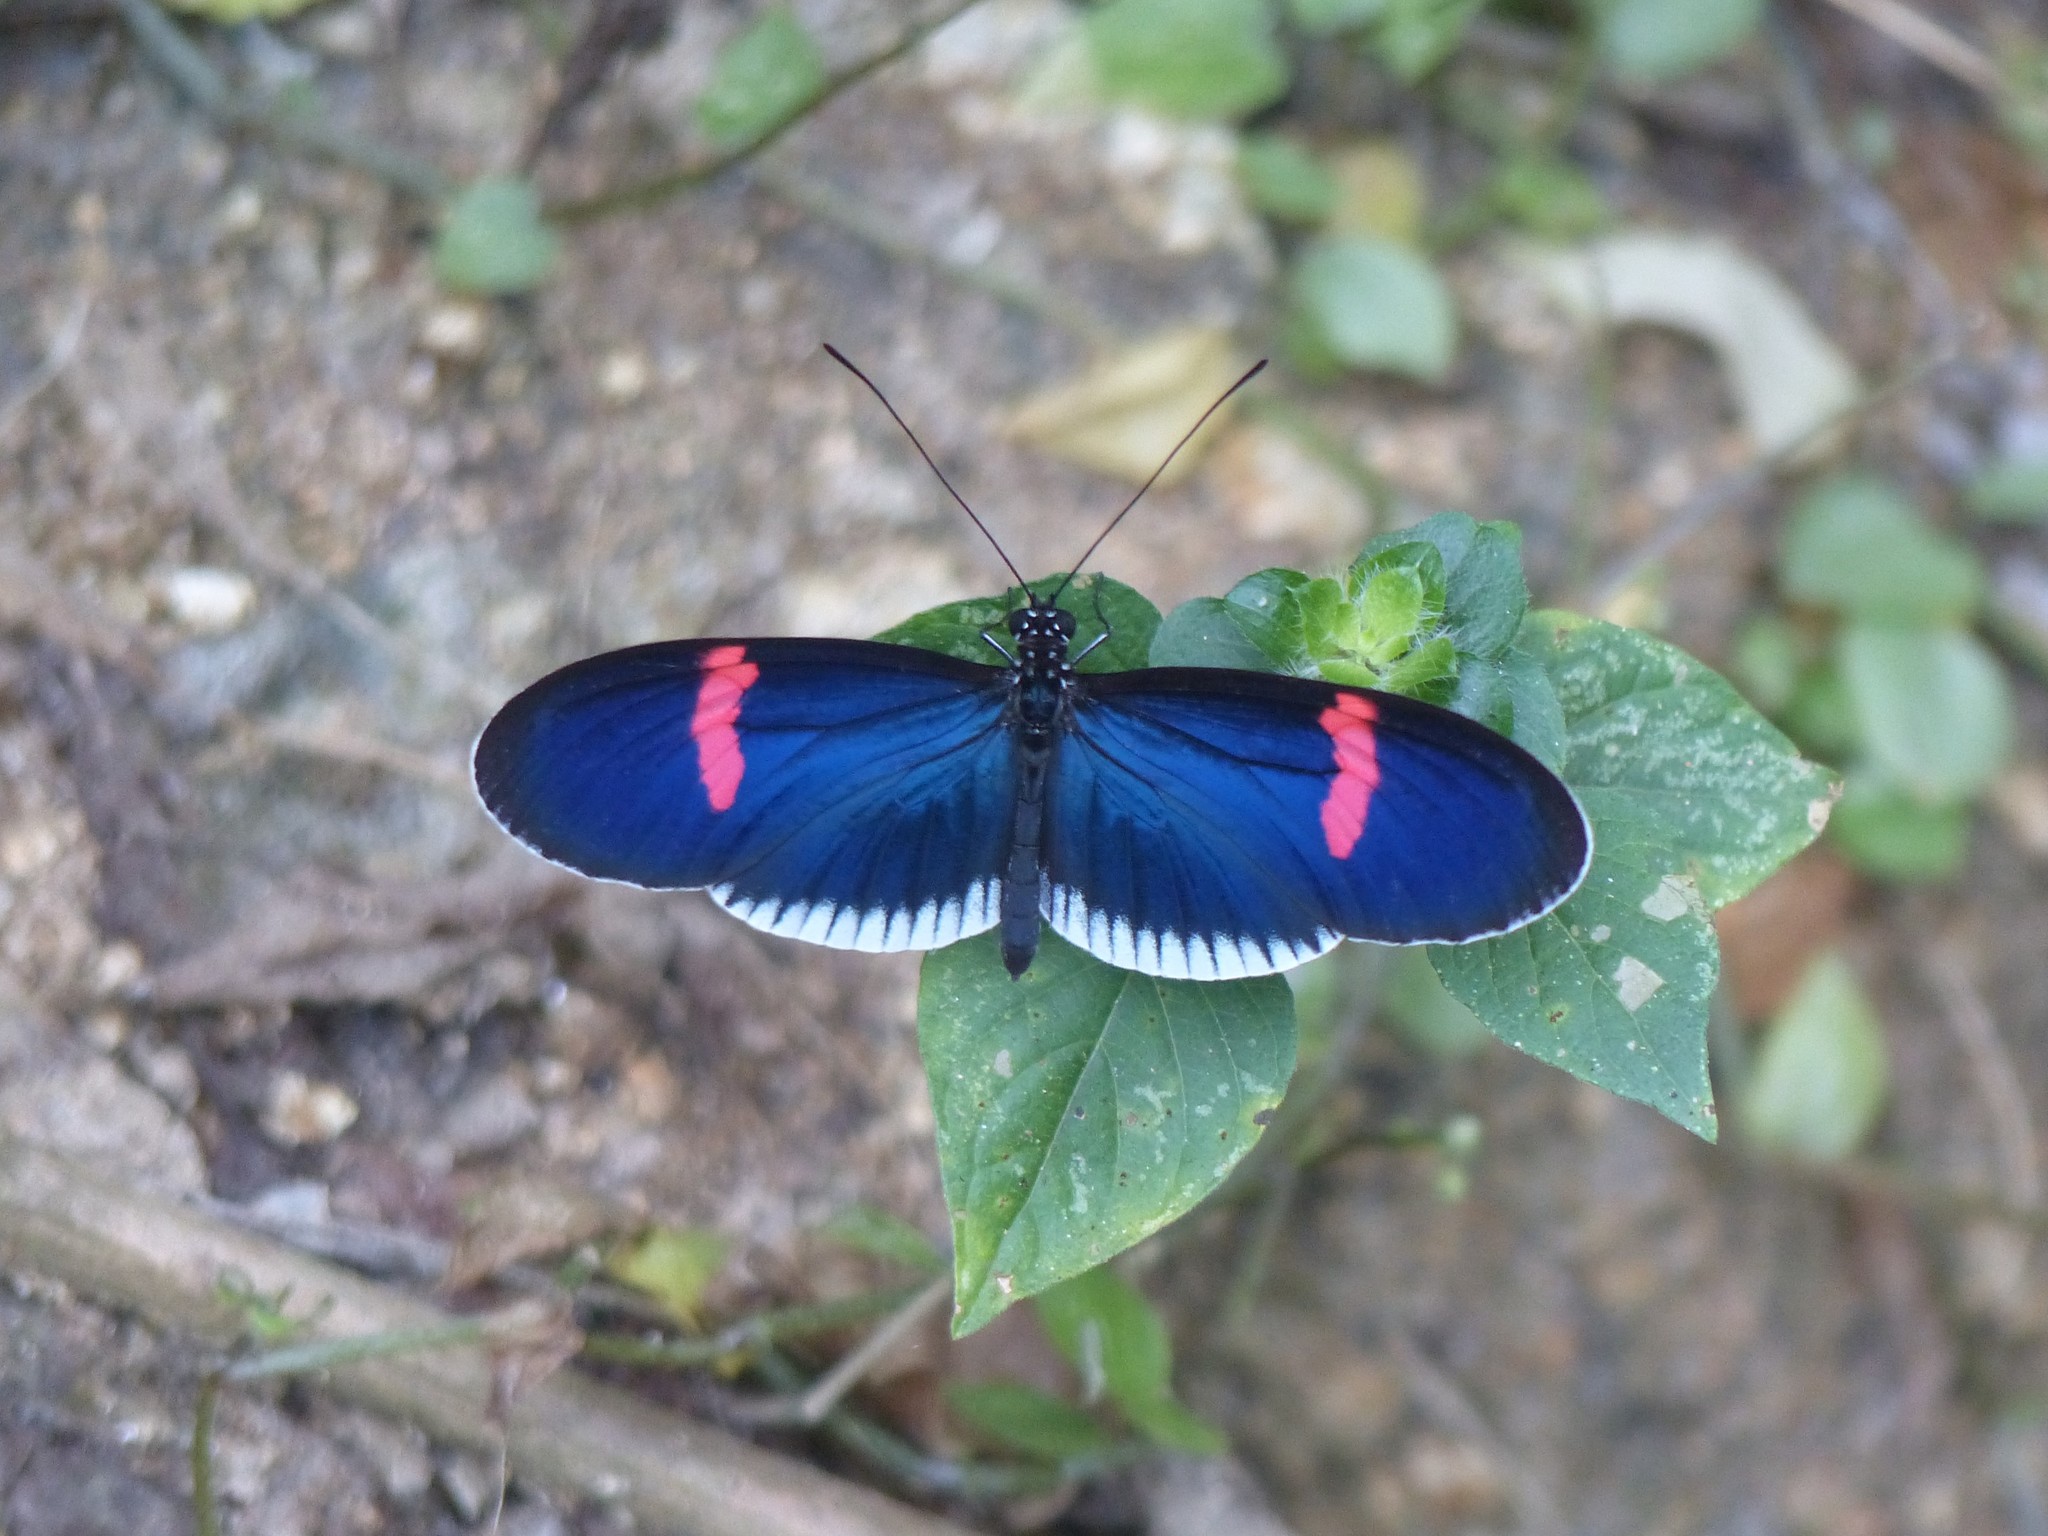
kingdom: Animalia
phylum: Arthropoda
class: Insecta
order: Lepidoptera
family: Nymphalidae
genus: Heliconius
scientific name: Heliconius erato
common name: Common patch longwing
